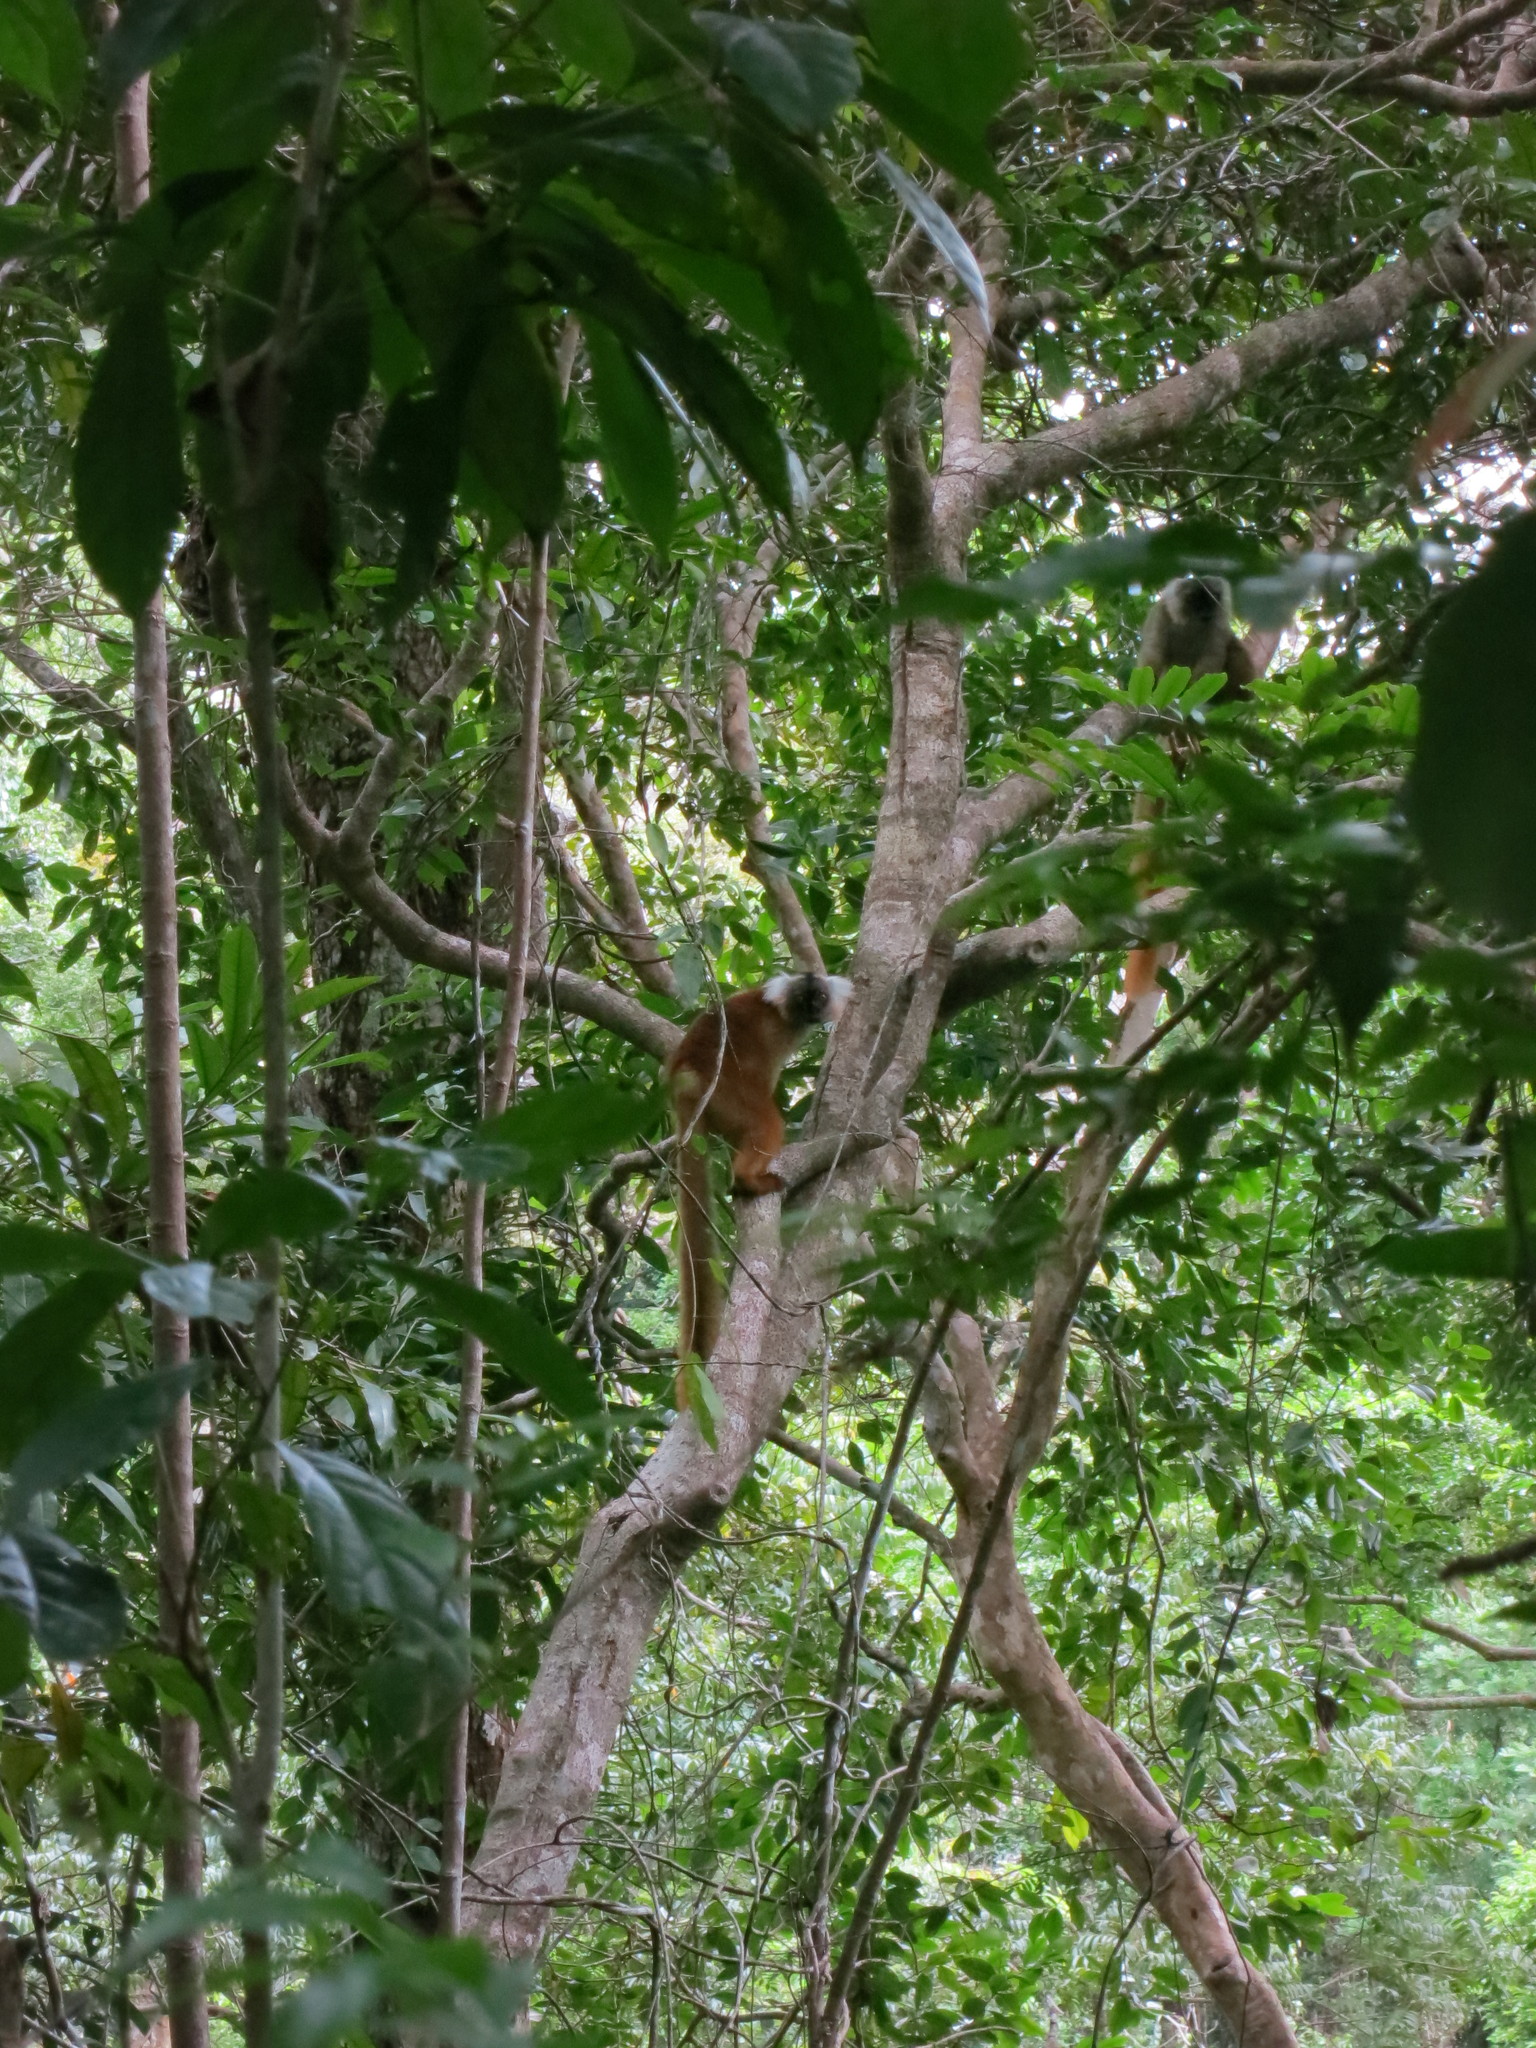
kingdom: Animalia
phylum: Chordata
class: Mammalia
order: Primates
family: Lemuridae
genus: Eulemur
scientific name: Eulemur macaco
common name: Black lemur
